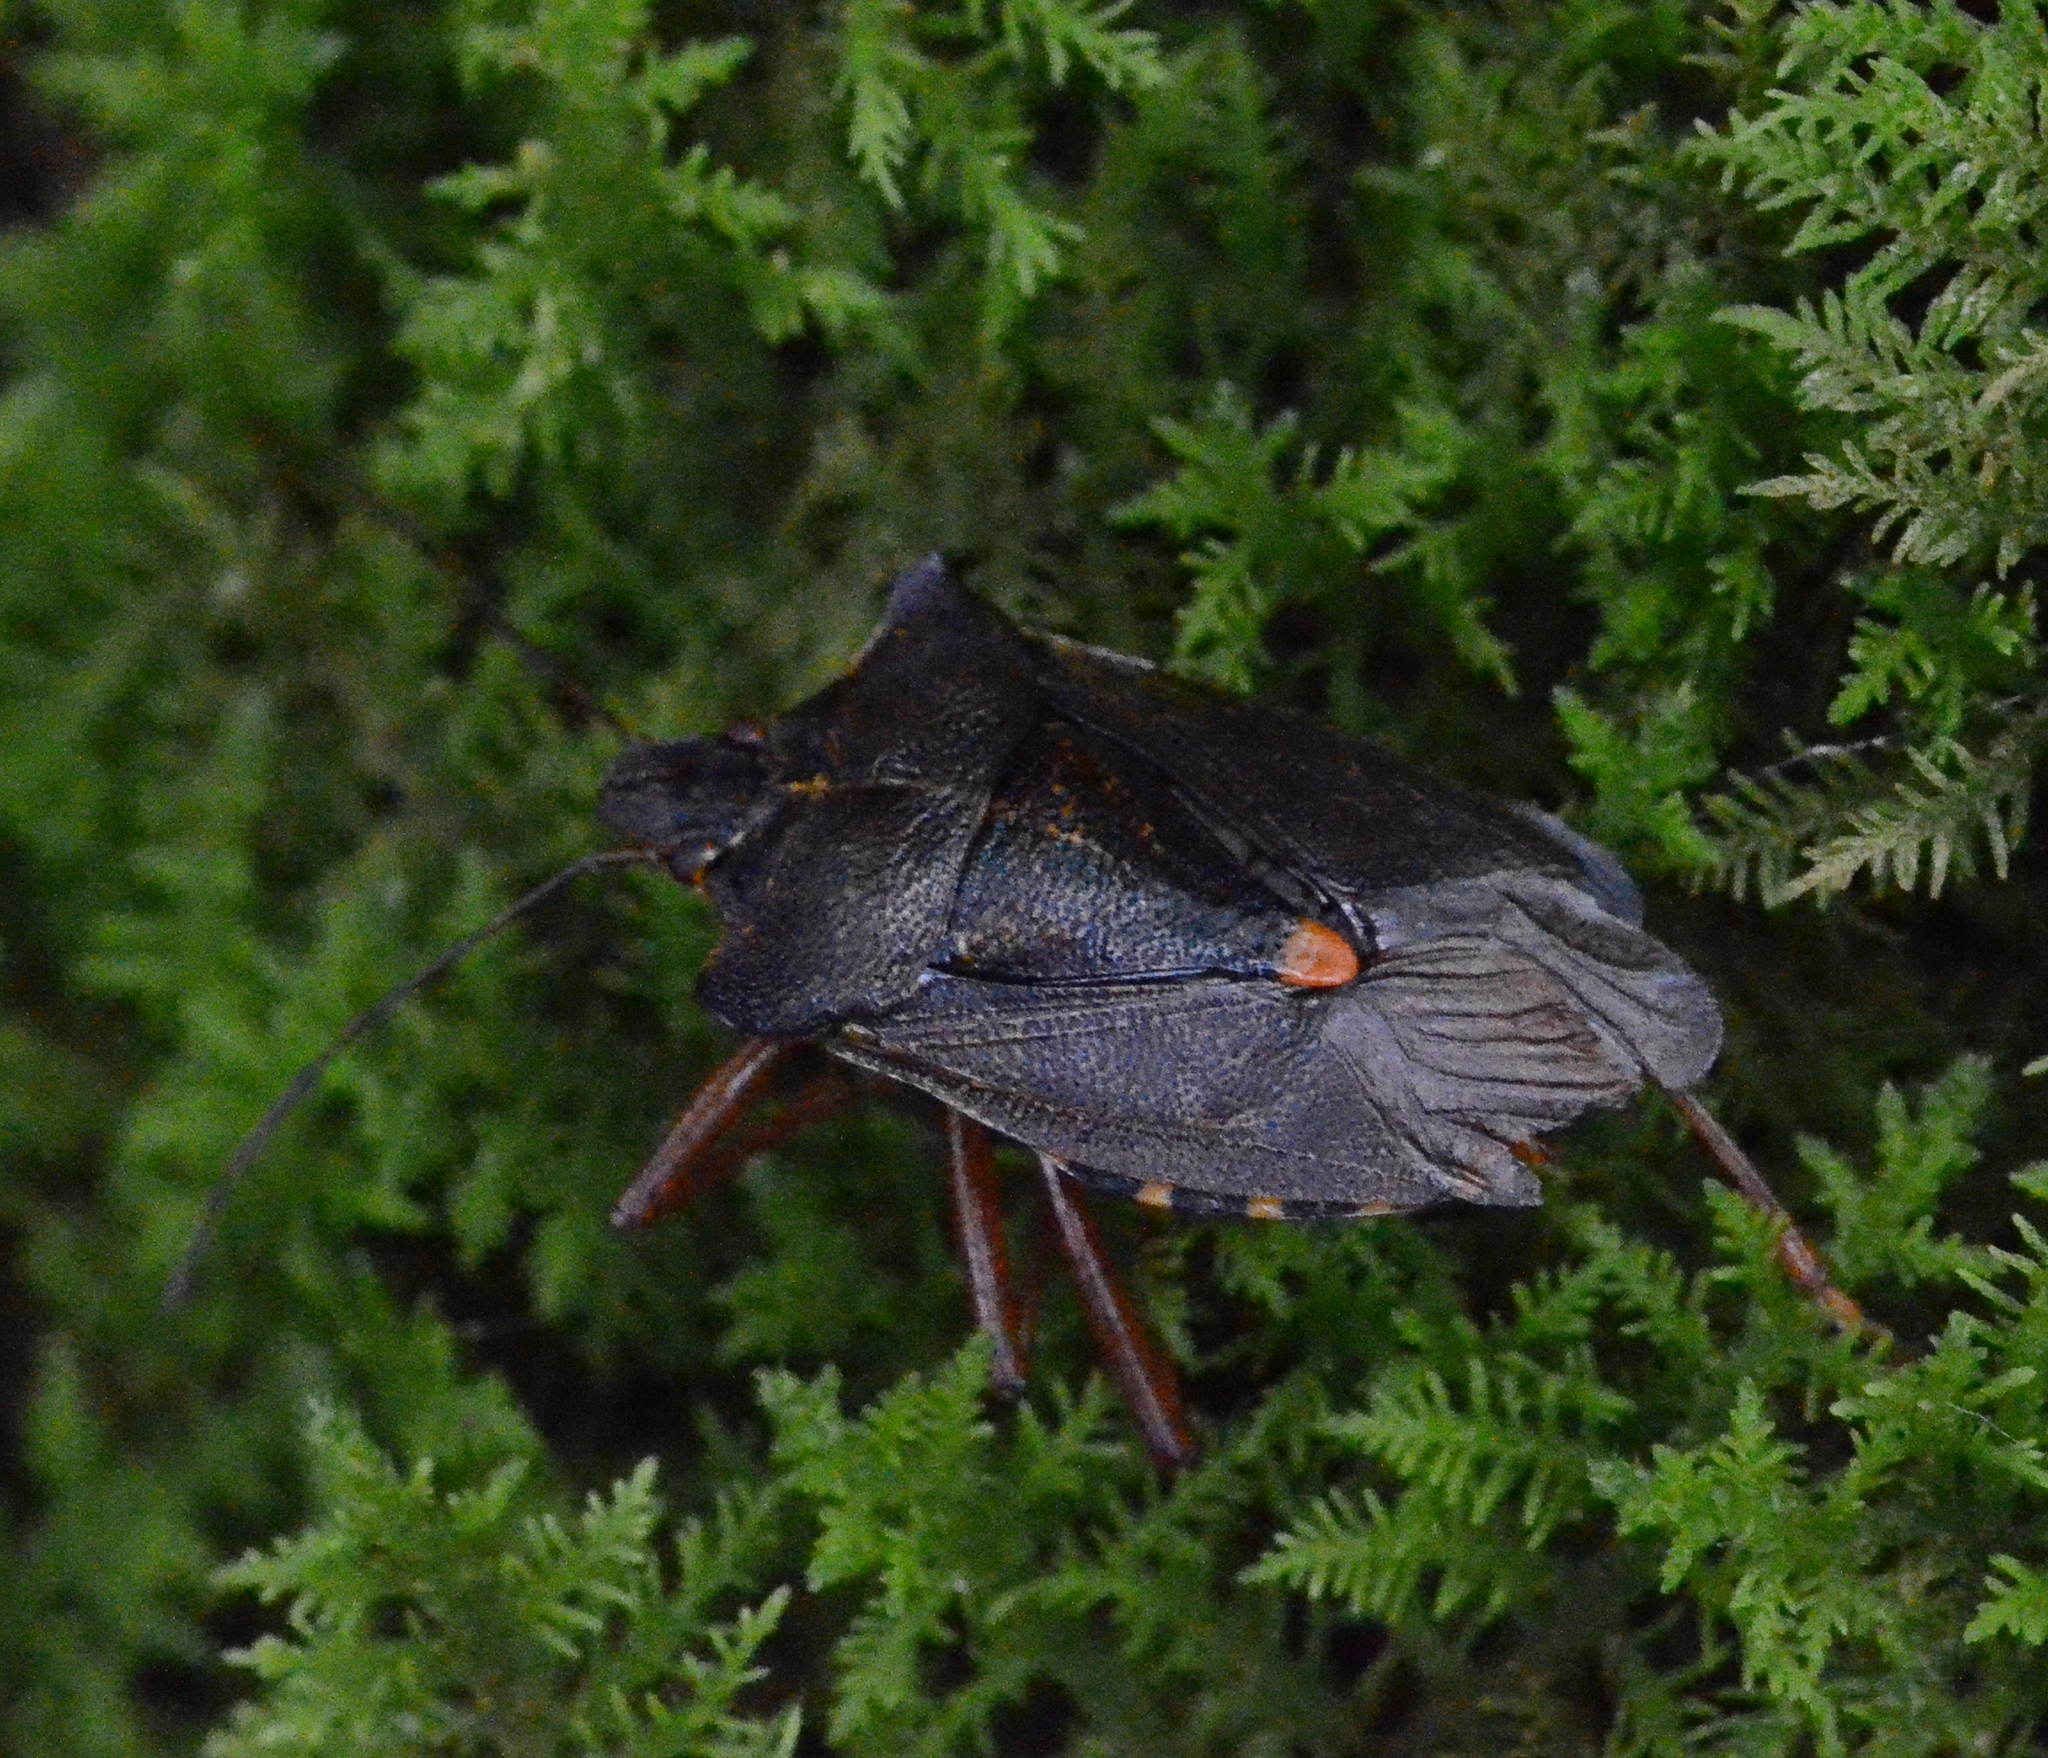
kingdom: Animalia
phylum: Arthropoda
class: Insecta
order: Hemiptera
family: Pentatomidae
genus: Pentatoma
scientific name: Pentatoma rufipes
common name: Forest bug
